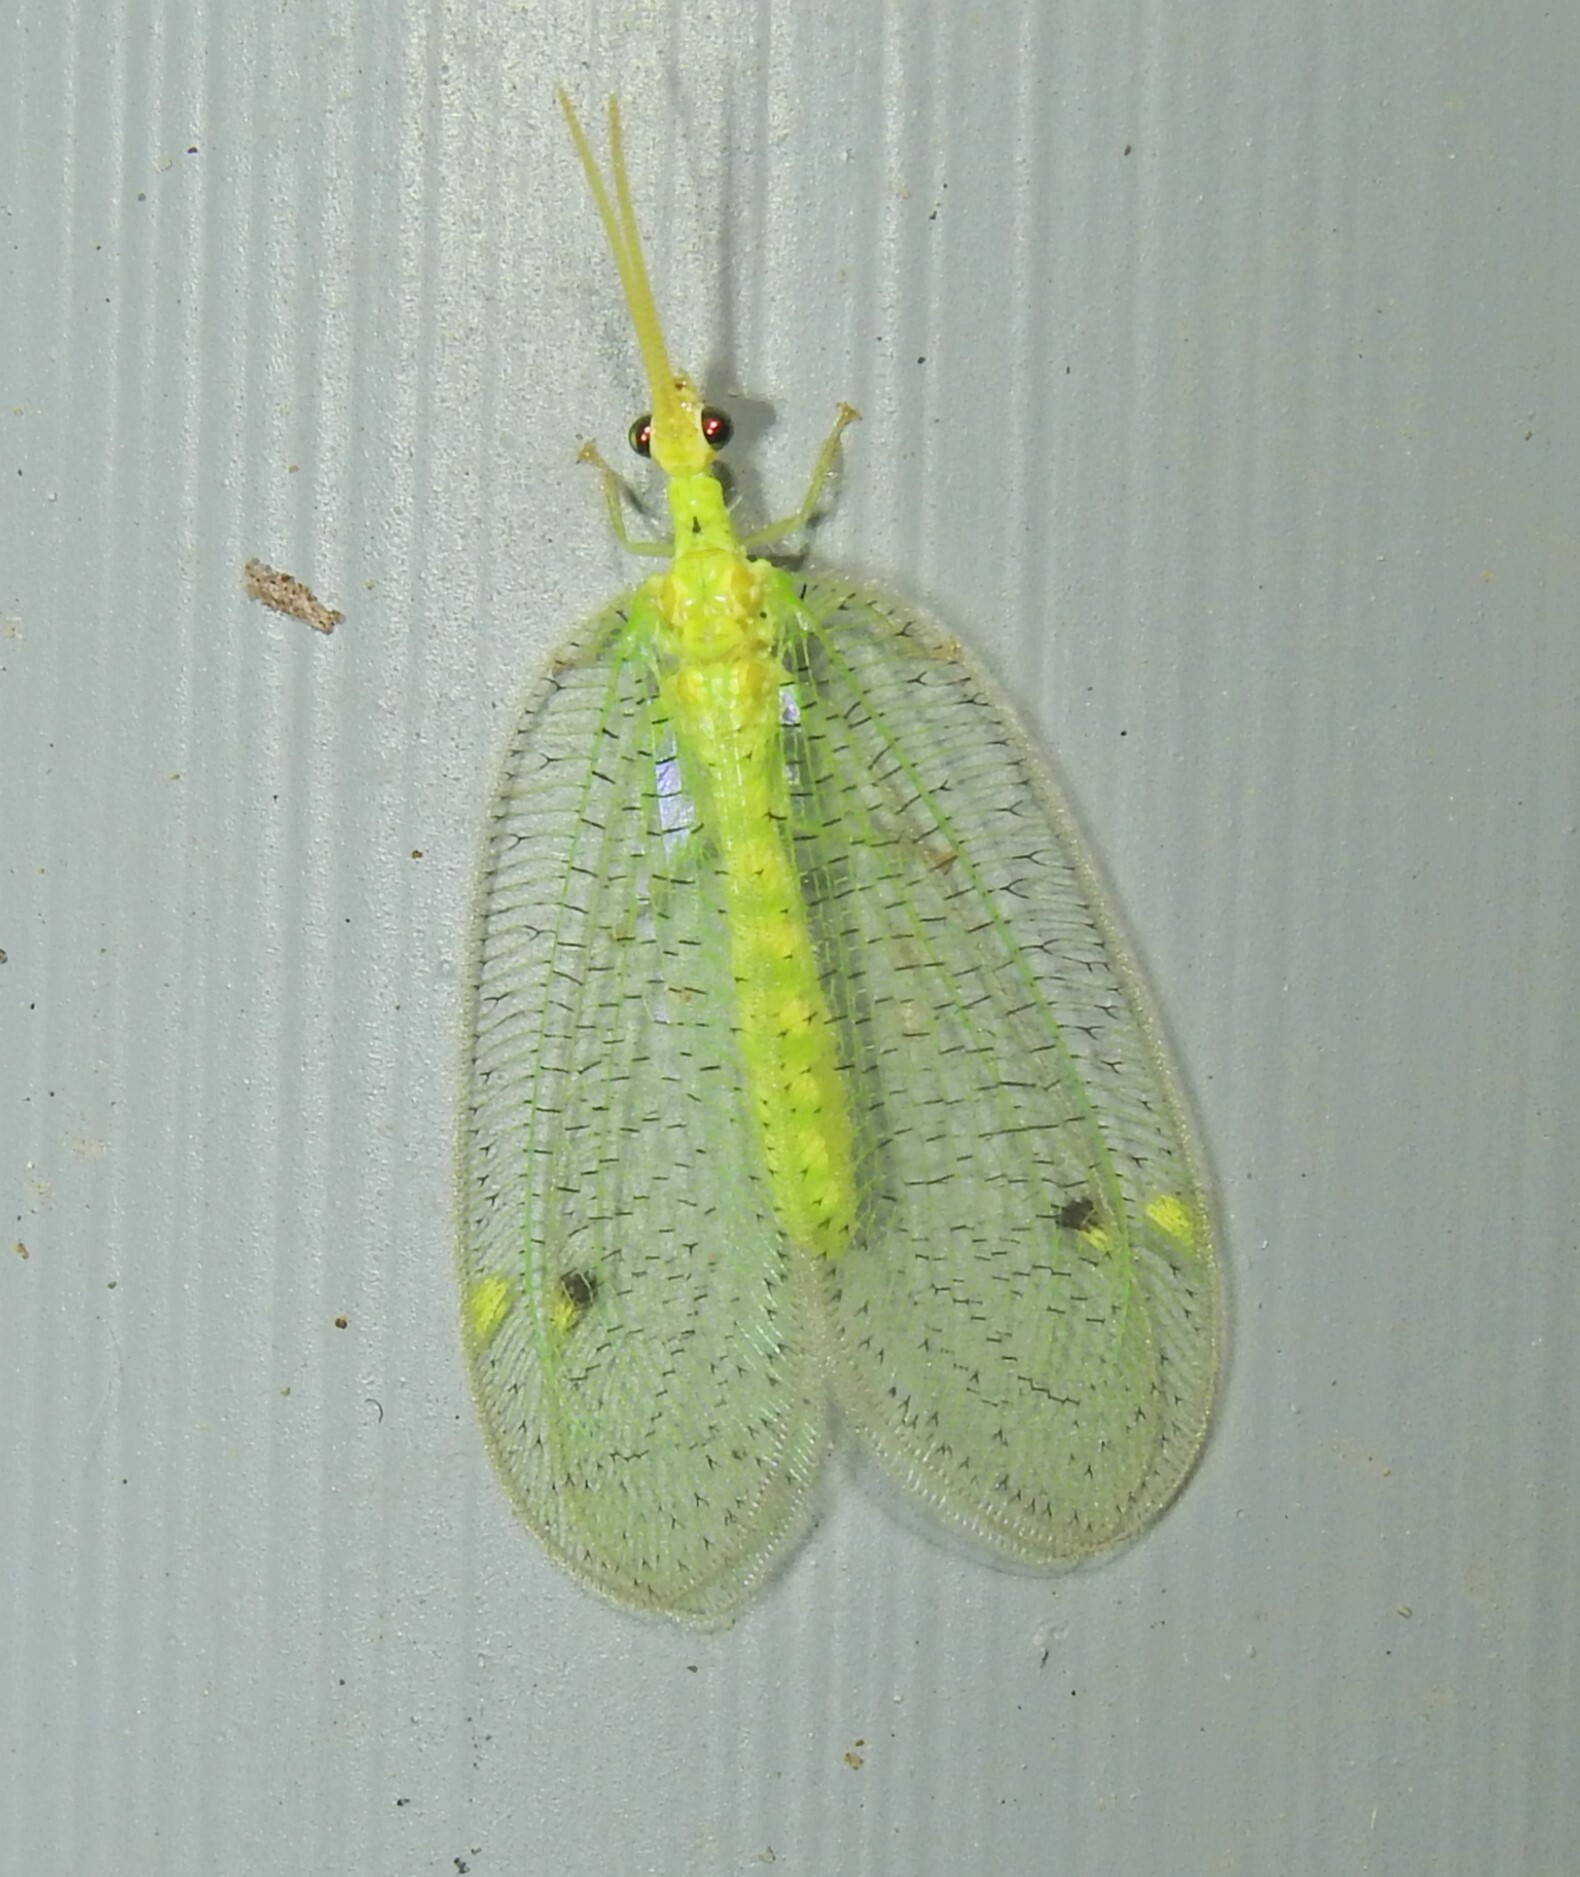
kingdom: Animalia
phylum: Arthropoda
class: Insecta
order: Neuroptera
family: Nymphidae
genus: Myiodactylus
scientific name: Myiodactylus osmyloides
